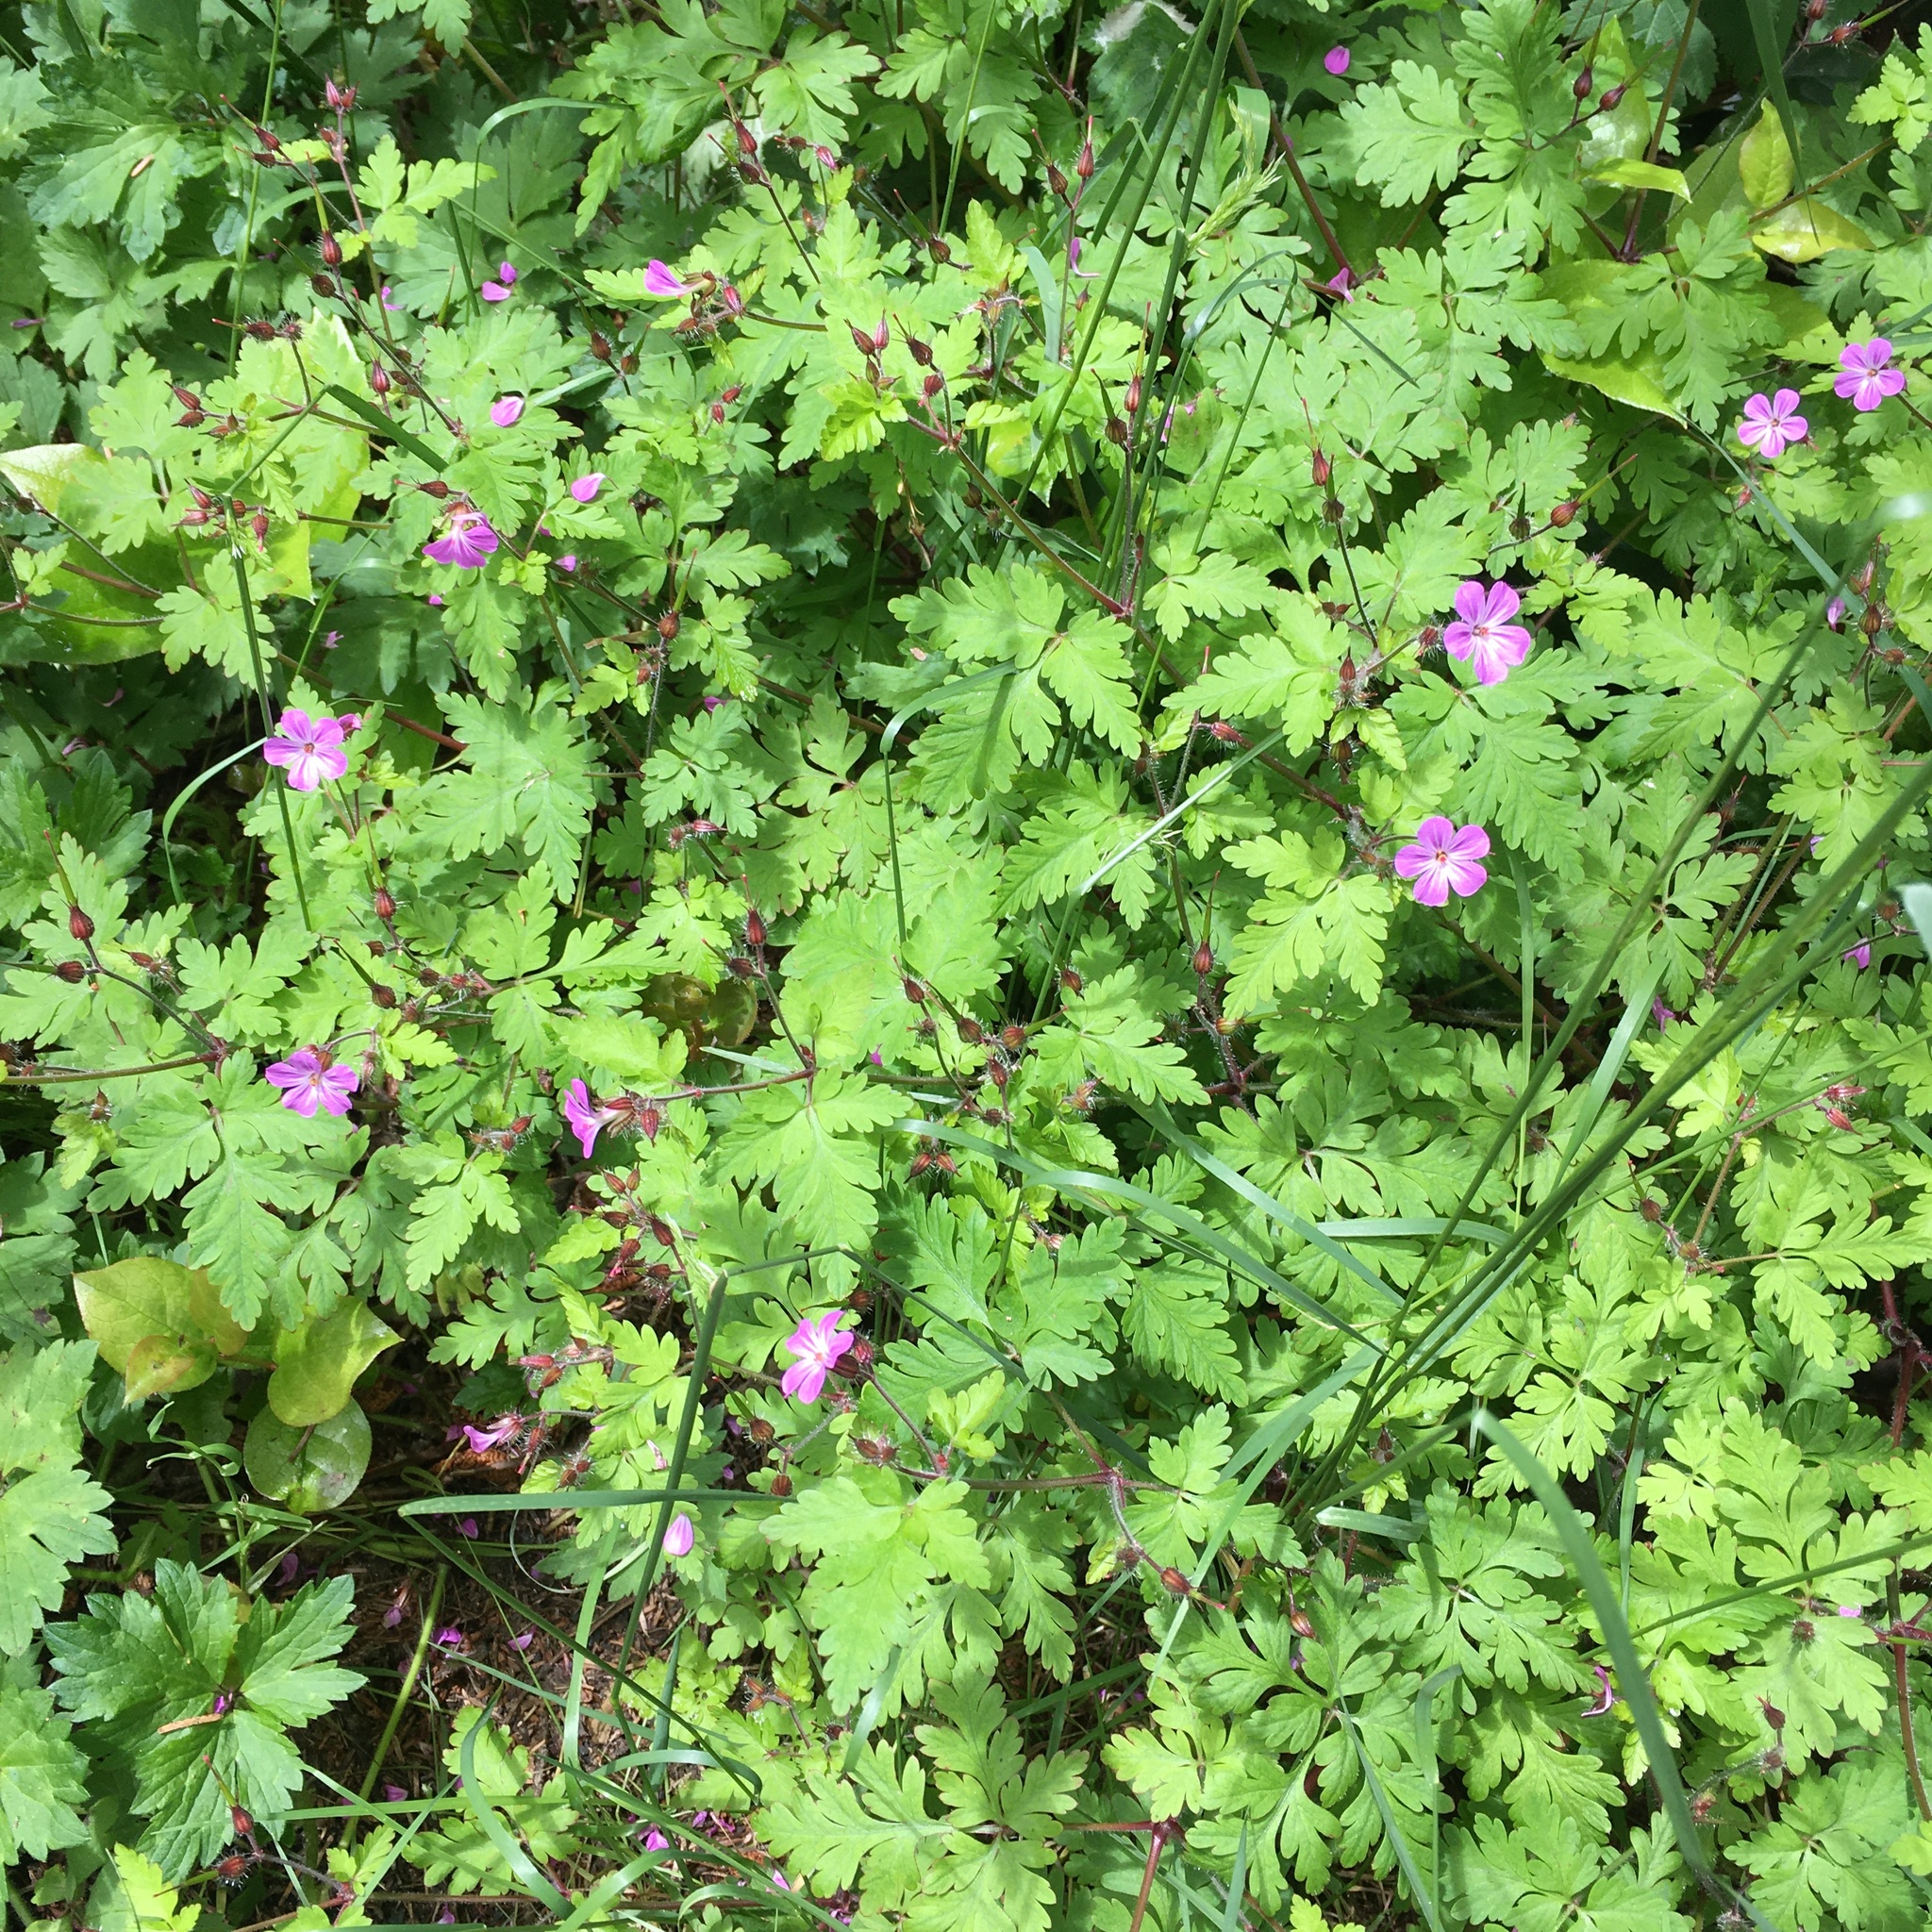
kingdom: Plantae
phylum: Tracheophyta
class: Magnoliopsida
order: Geraniales
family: Geraniaceae
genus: Geranium
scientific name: Geranium robertianum
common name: Herb-robert
